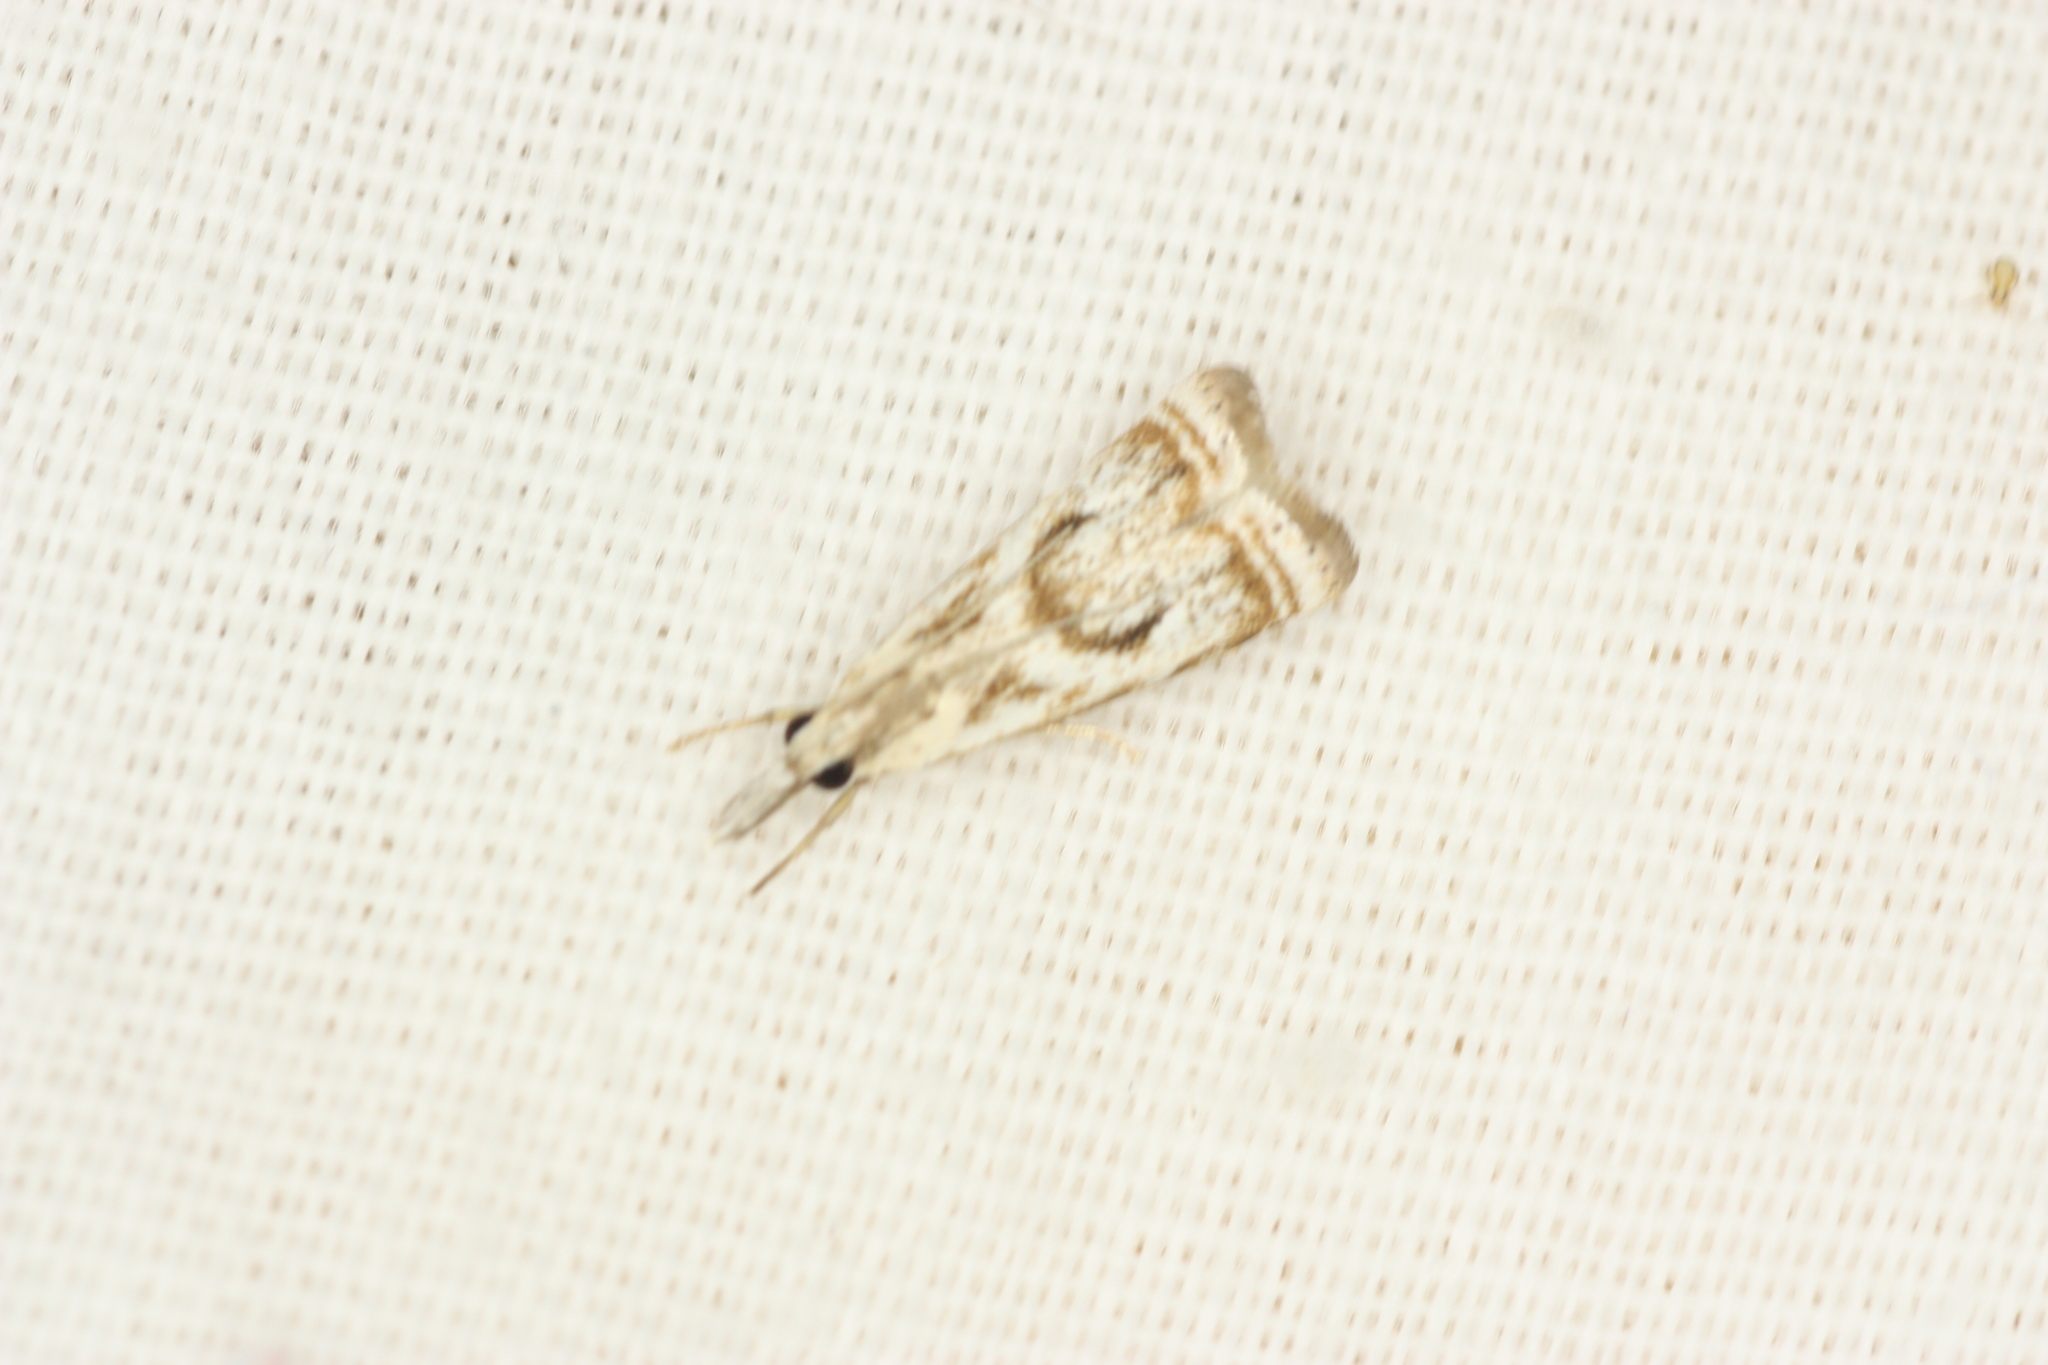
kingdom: Animalia
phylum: Arthropoda
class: Insecta
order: Lepidoptera
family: Crambidae
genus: Microcrambus
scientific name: Microcrambus elegans
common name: Elegant grass-veneer
